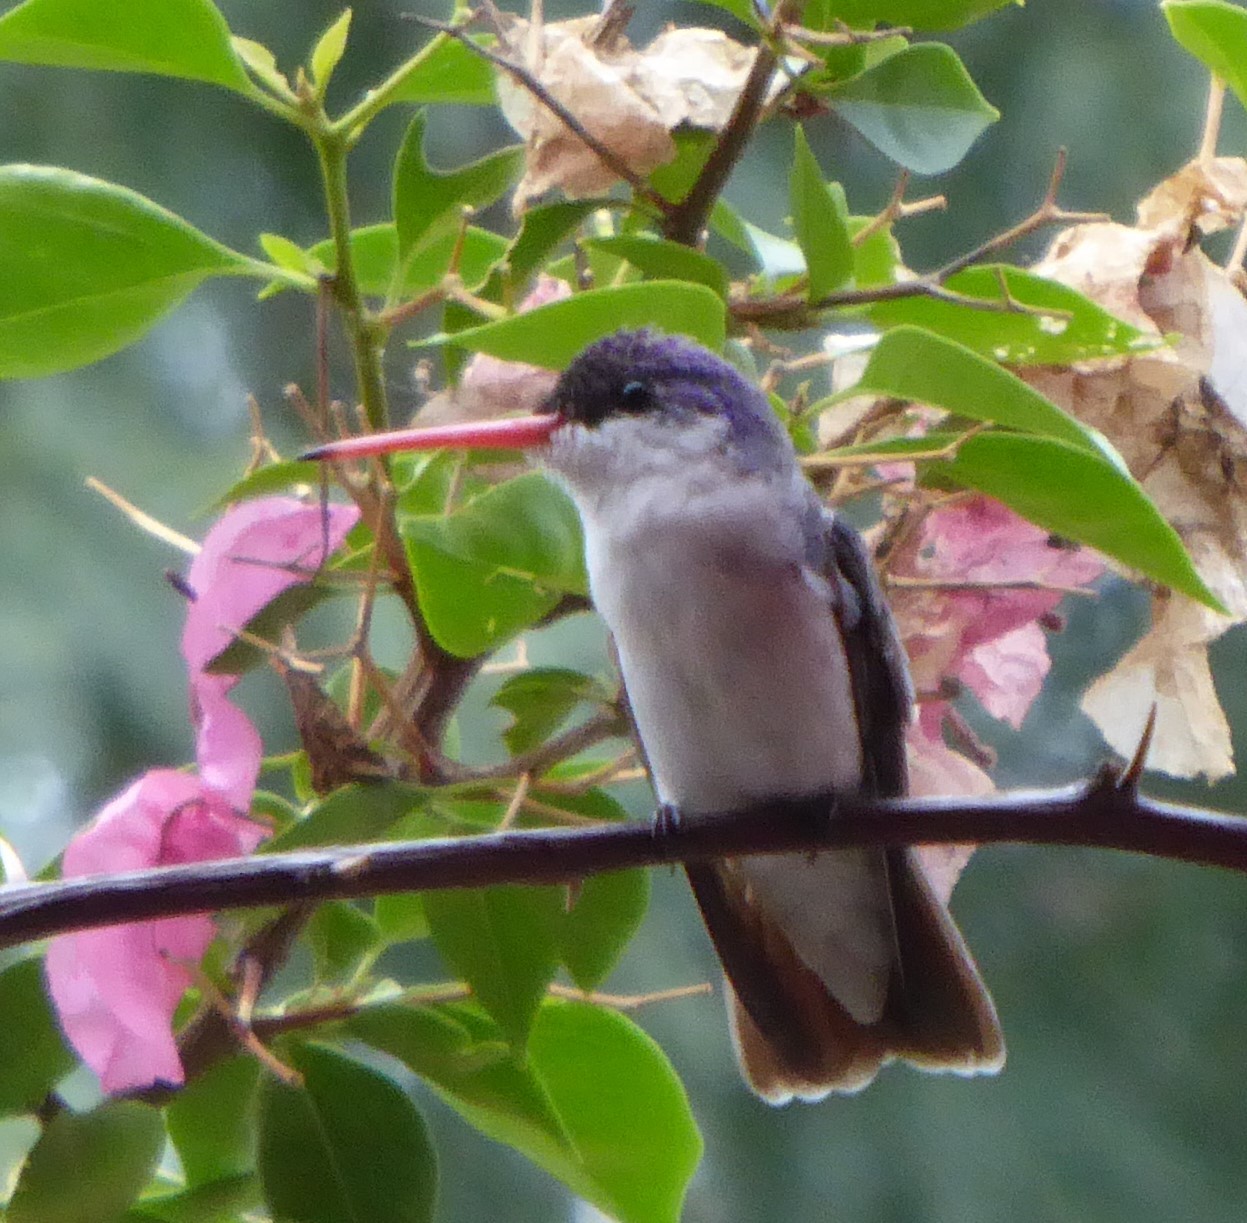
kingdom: Animalia
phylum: Chordata
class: Aves
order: Apodiformes
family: Trochilidae
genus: Leucolia
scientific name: Leucolia violiceps
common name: Violet-crowned hummingbird
